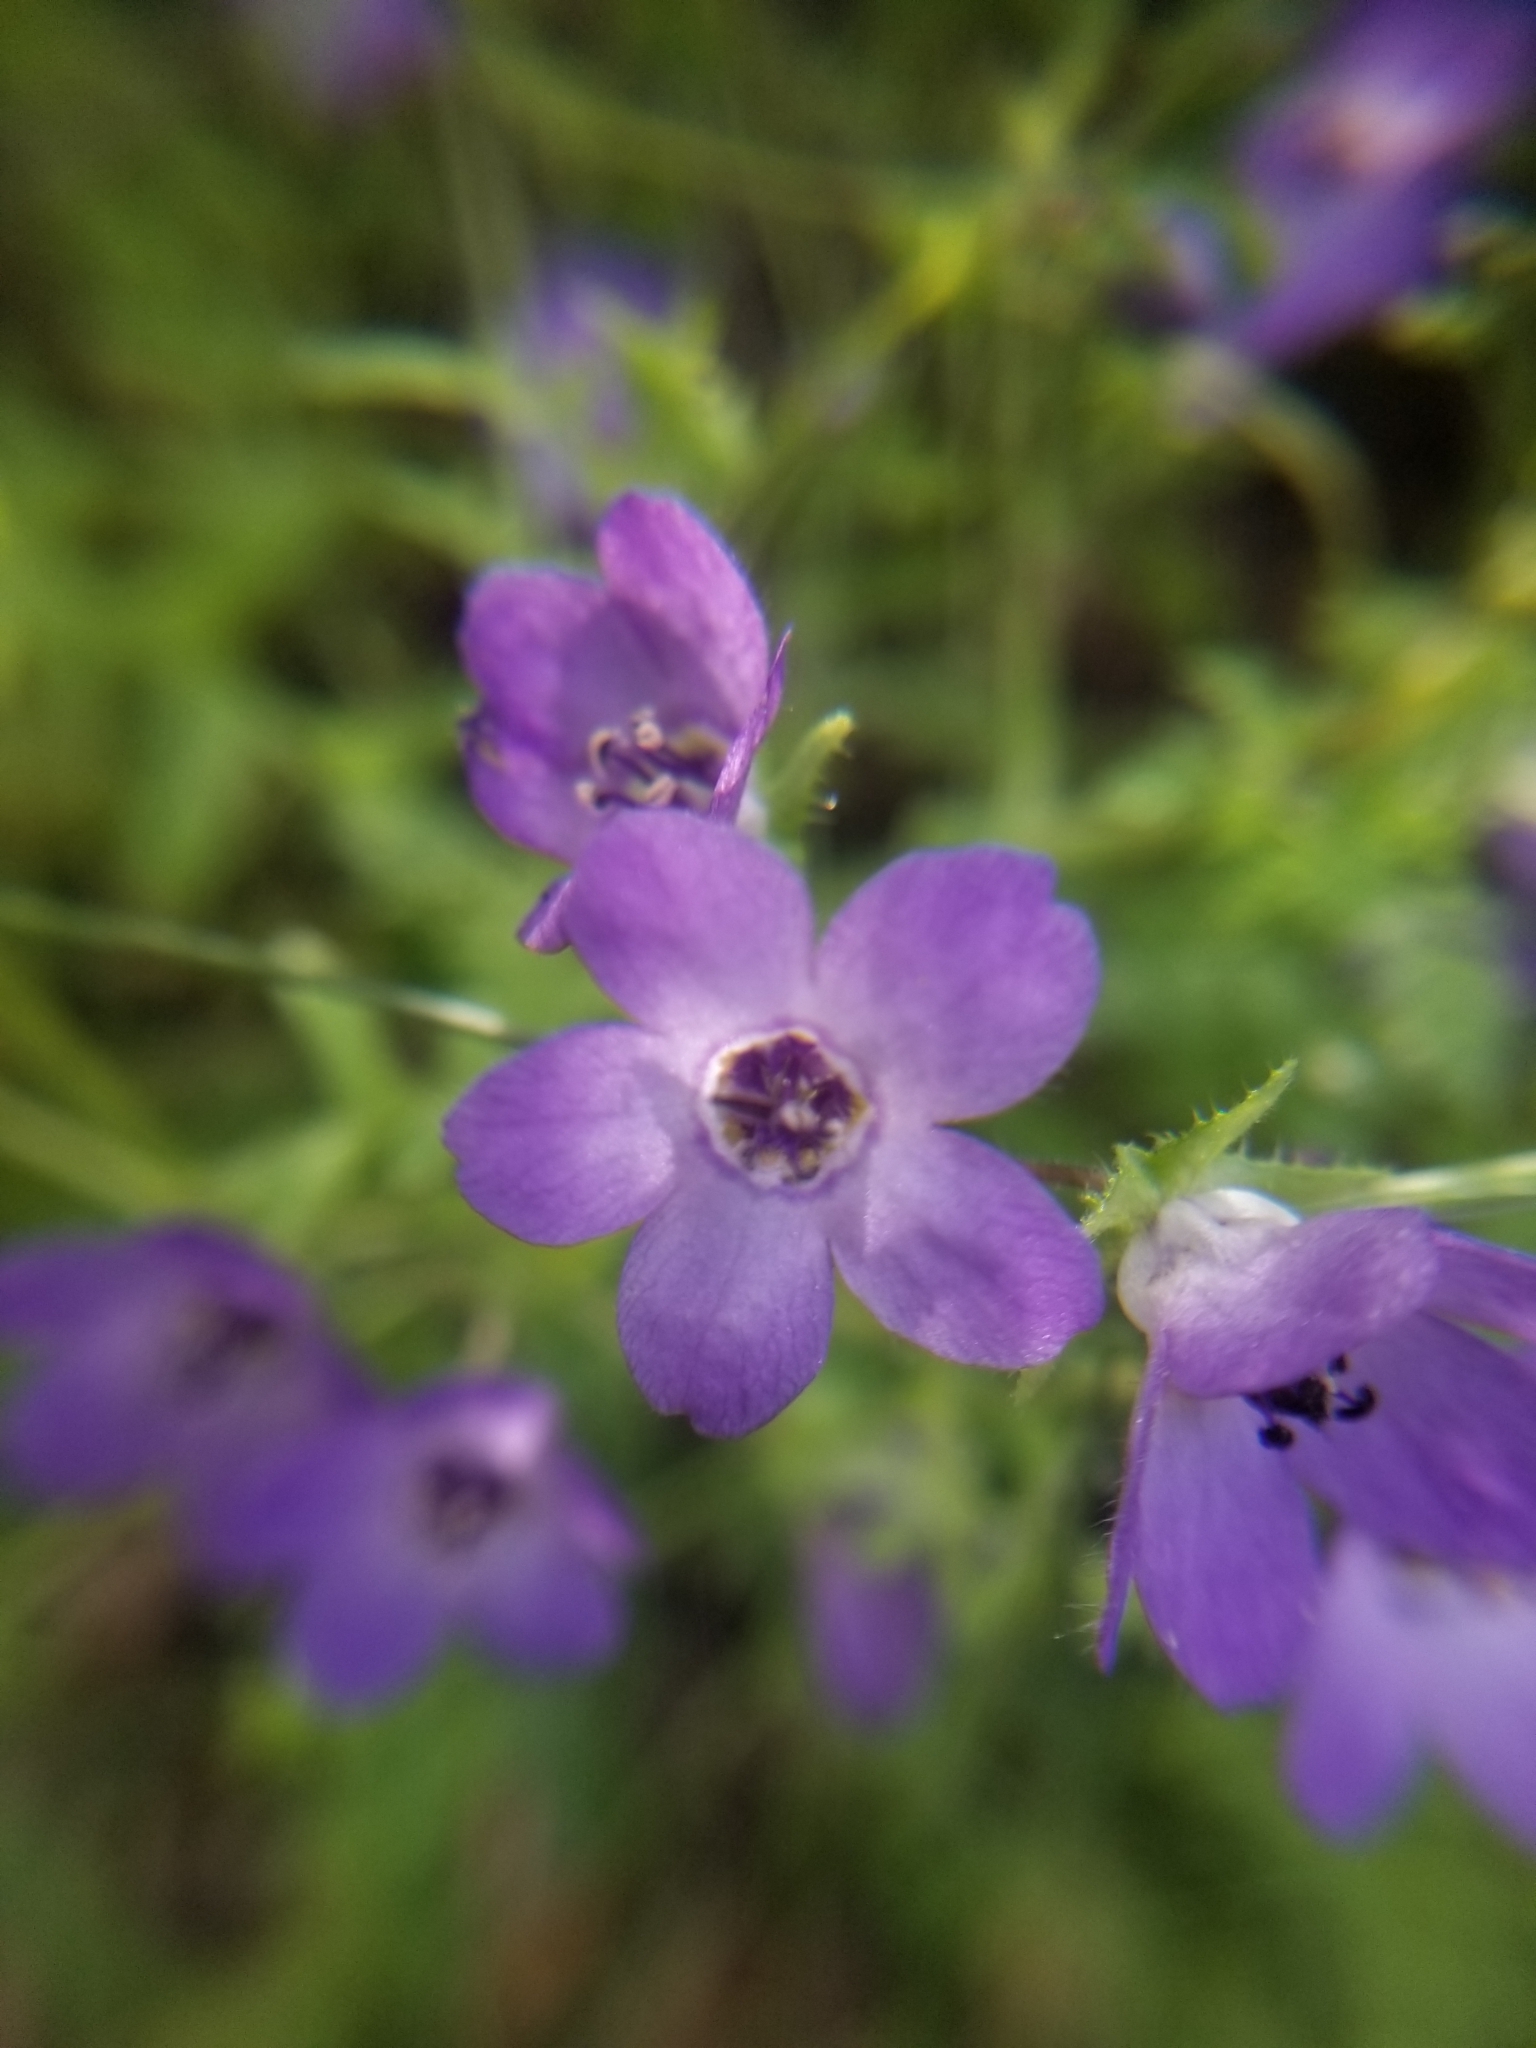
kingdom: Plantae
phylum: Tracheophyta
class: Magnoliopsida
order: Boraginales
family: Hydrophyllaceae
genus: Pholistoma
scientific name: Pholistoma auritum
